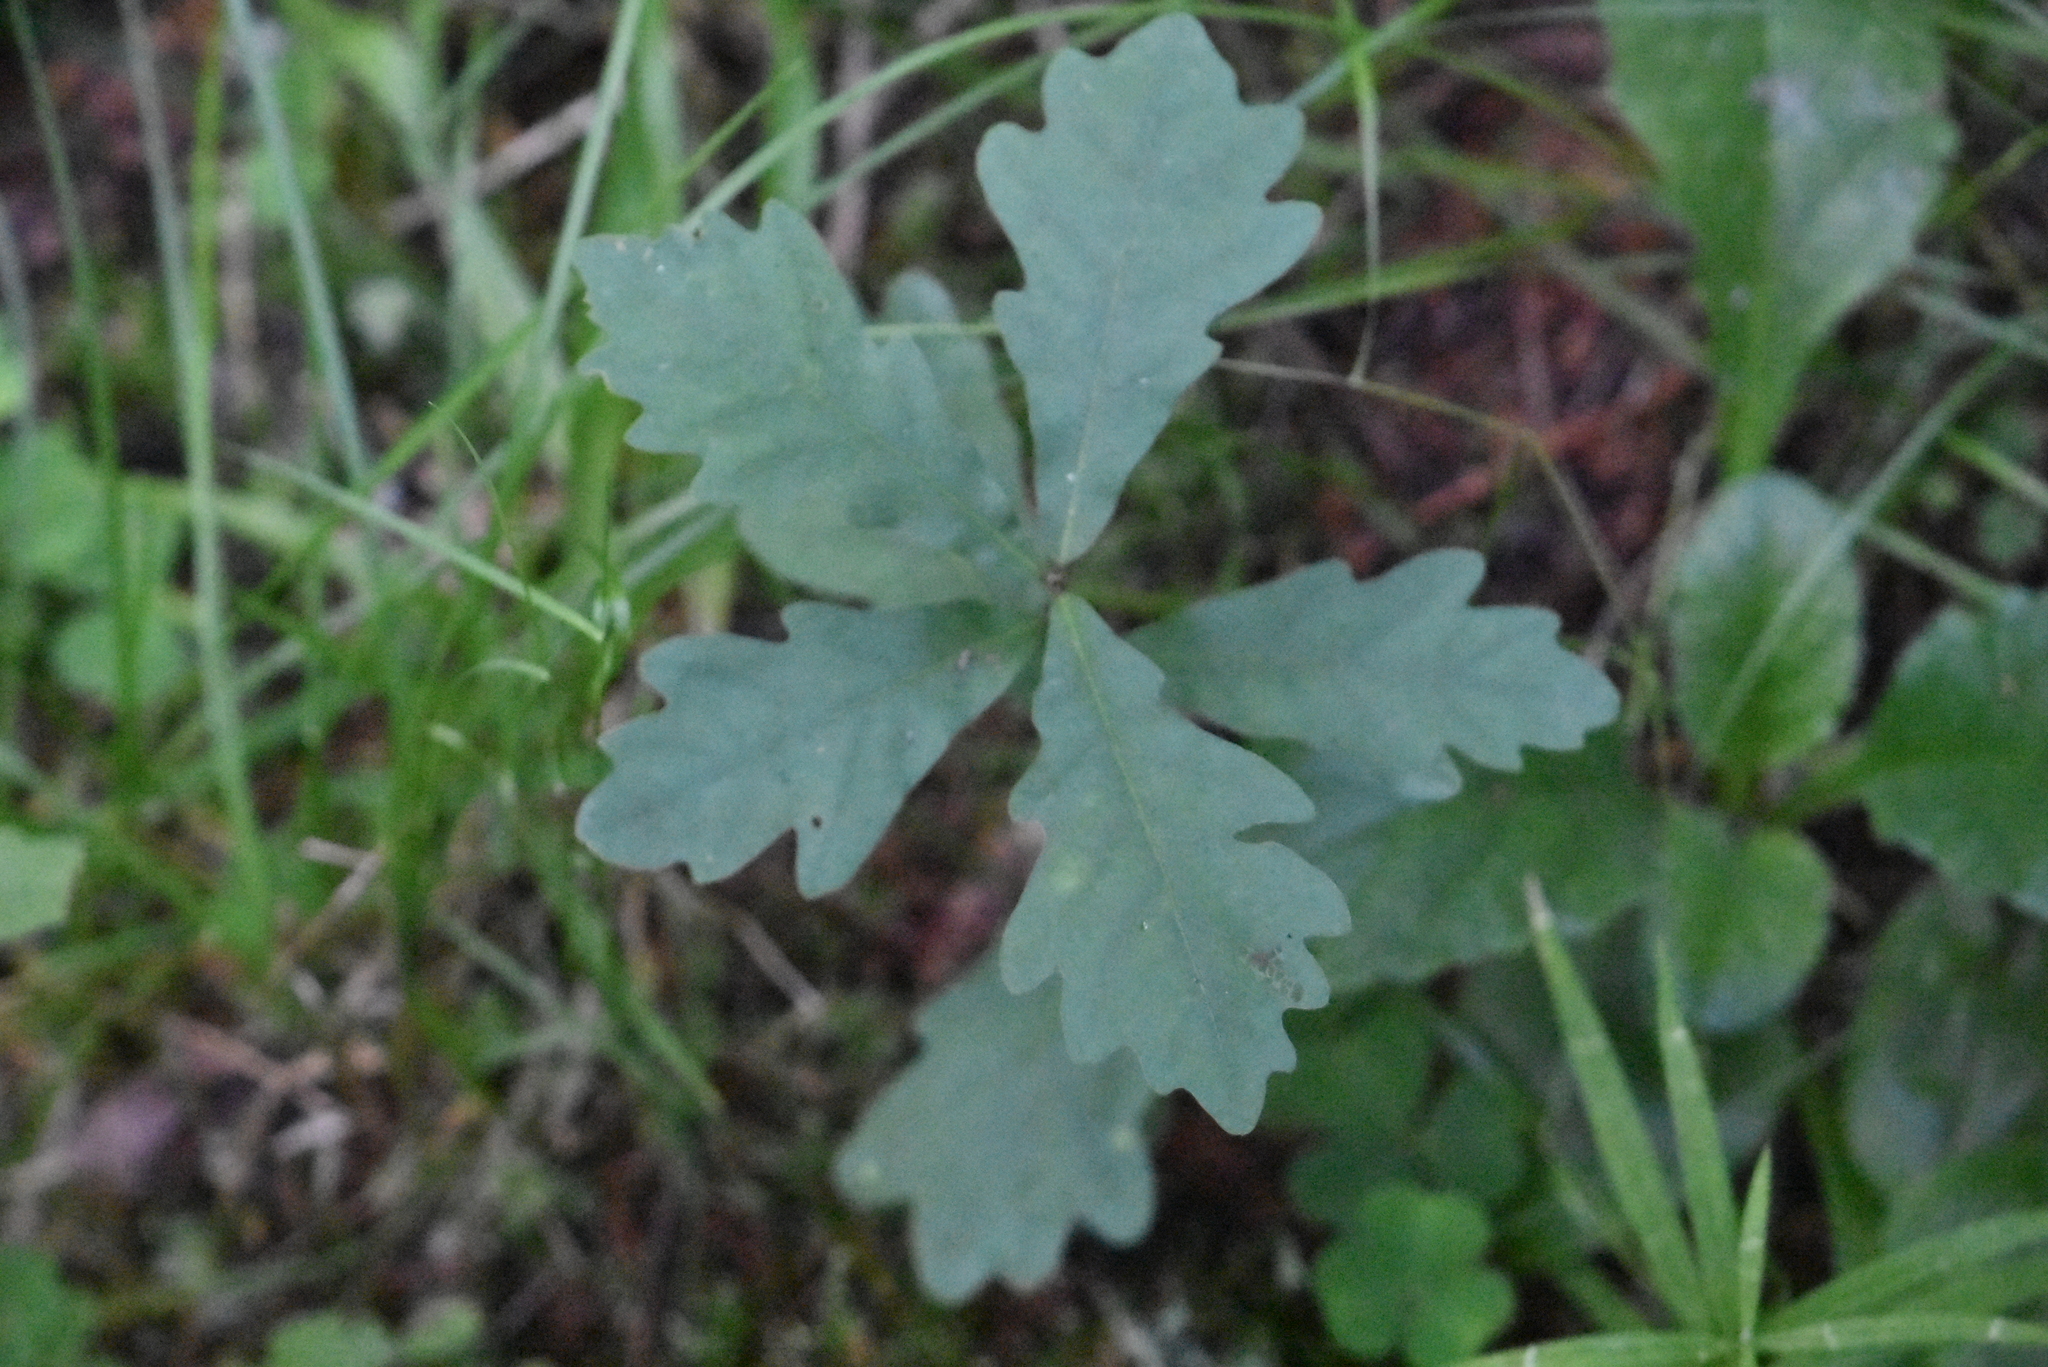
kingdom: Plantae
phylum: Tracheophyta
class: Magnoliopsida
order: Fagales
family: Fagaceae
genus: Quercus
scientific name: Quercus robur
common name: Pedunculate oak
